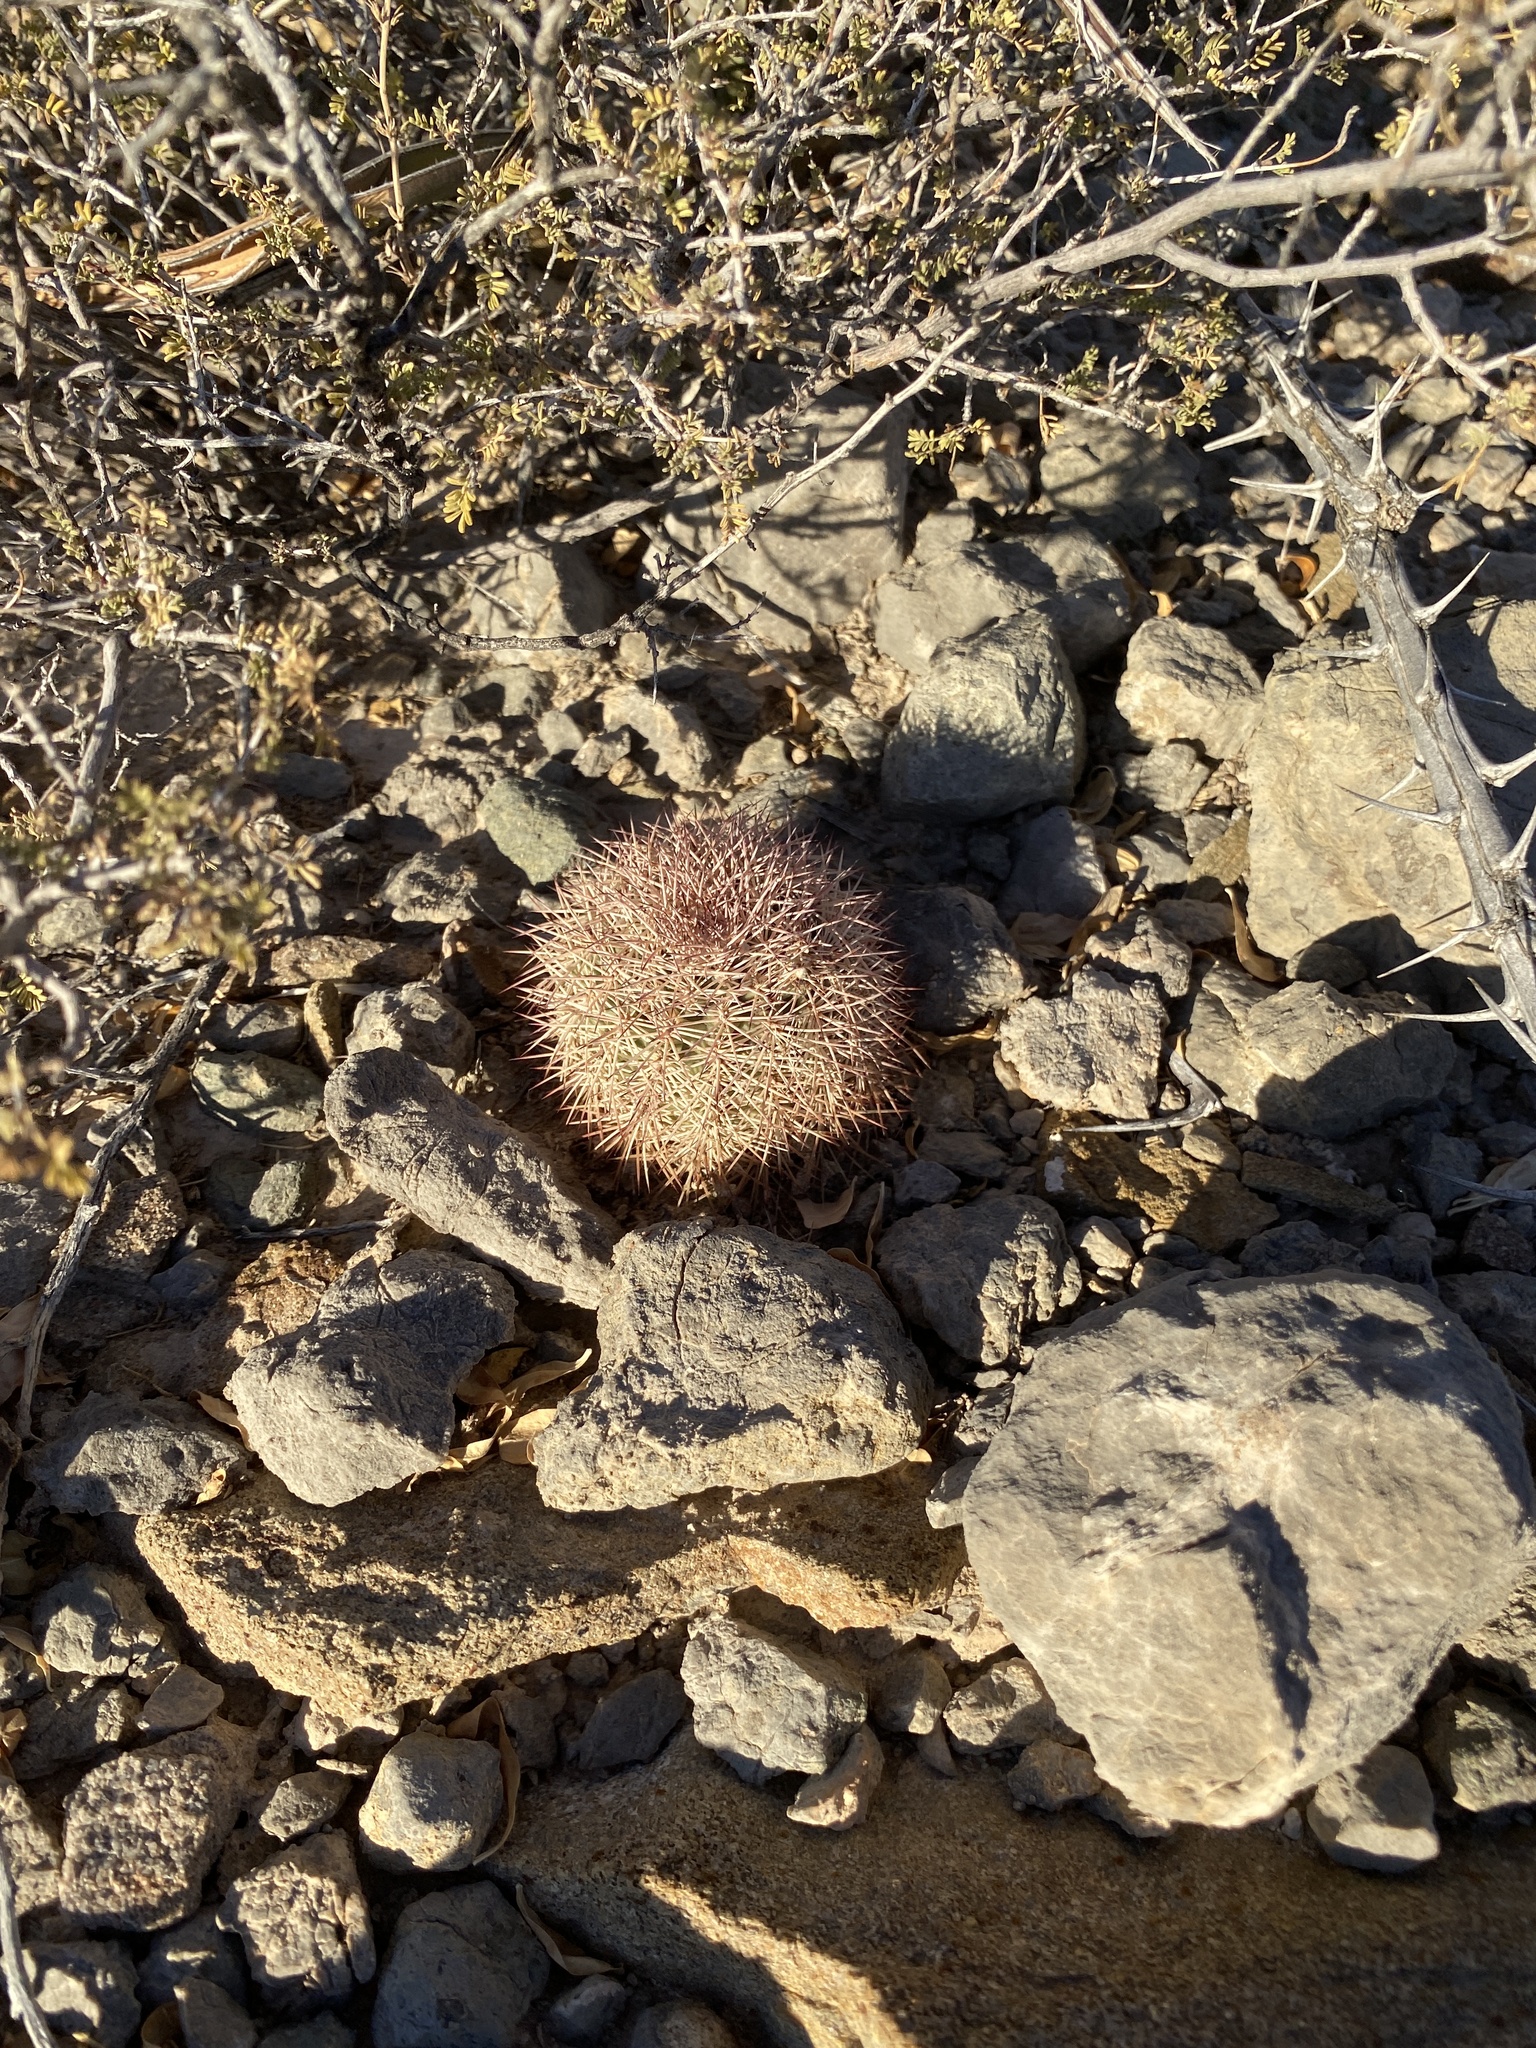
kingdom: Plantae
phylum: Tracheophyta
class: Magnoliopsida
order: Caryophyllales
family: Cactaceae
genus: Echinocereus
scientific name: Echinocereus dasyacanthus
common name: Spiny hedgehog cactus
